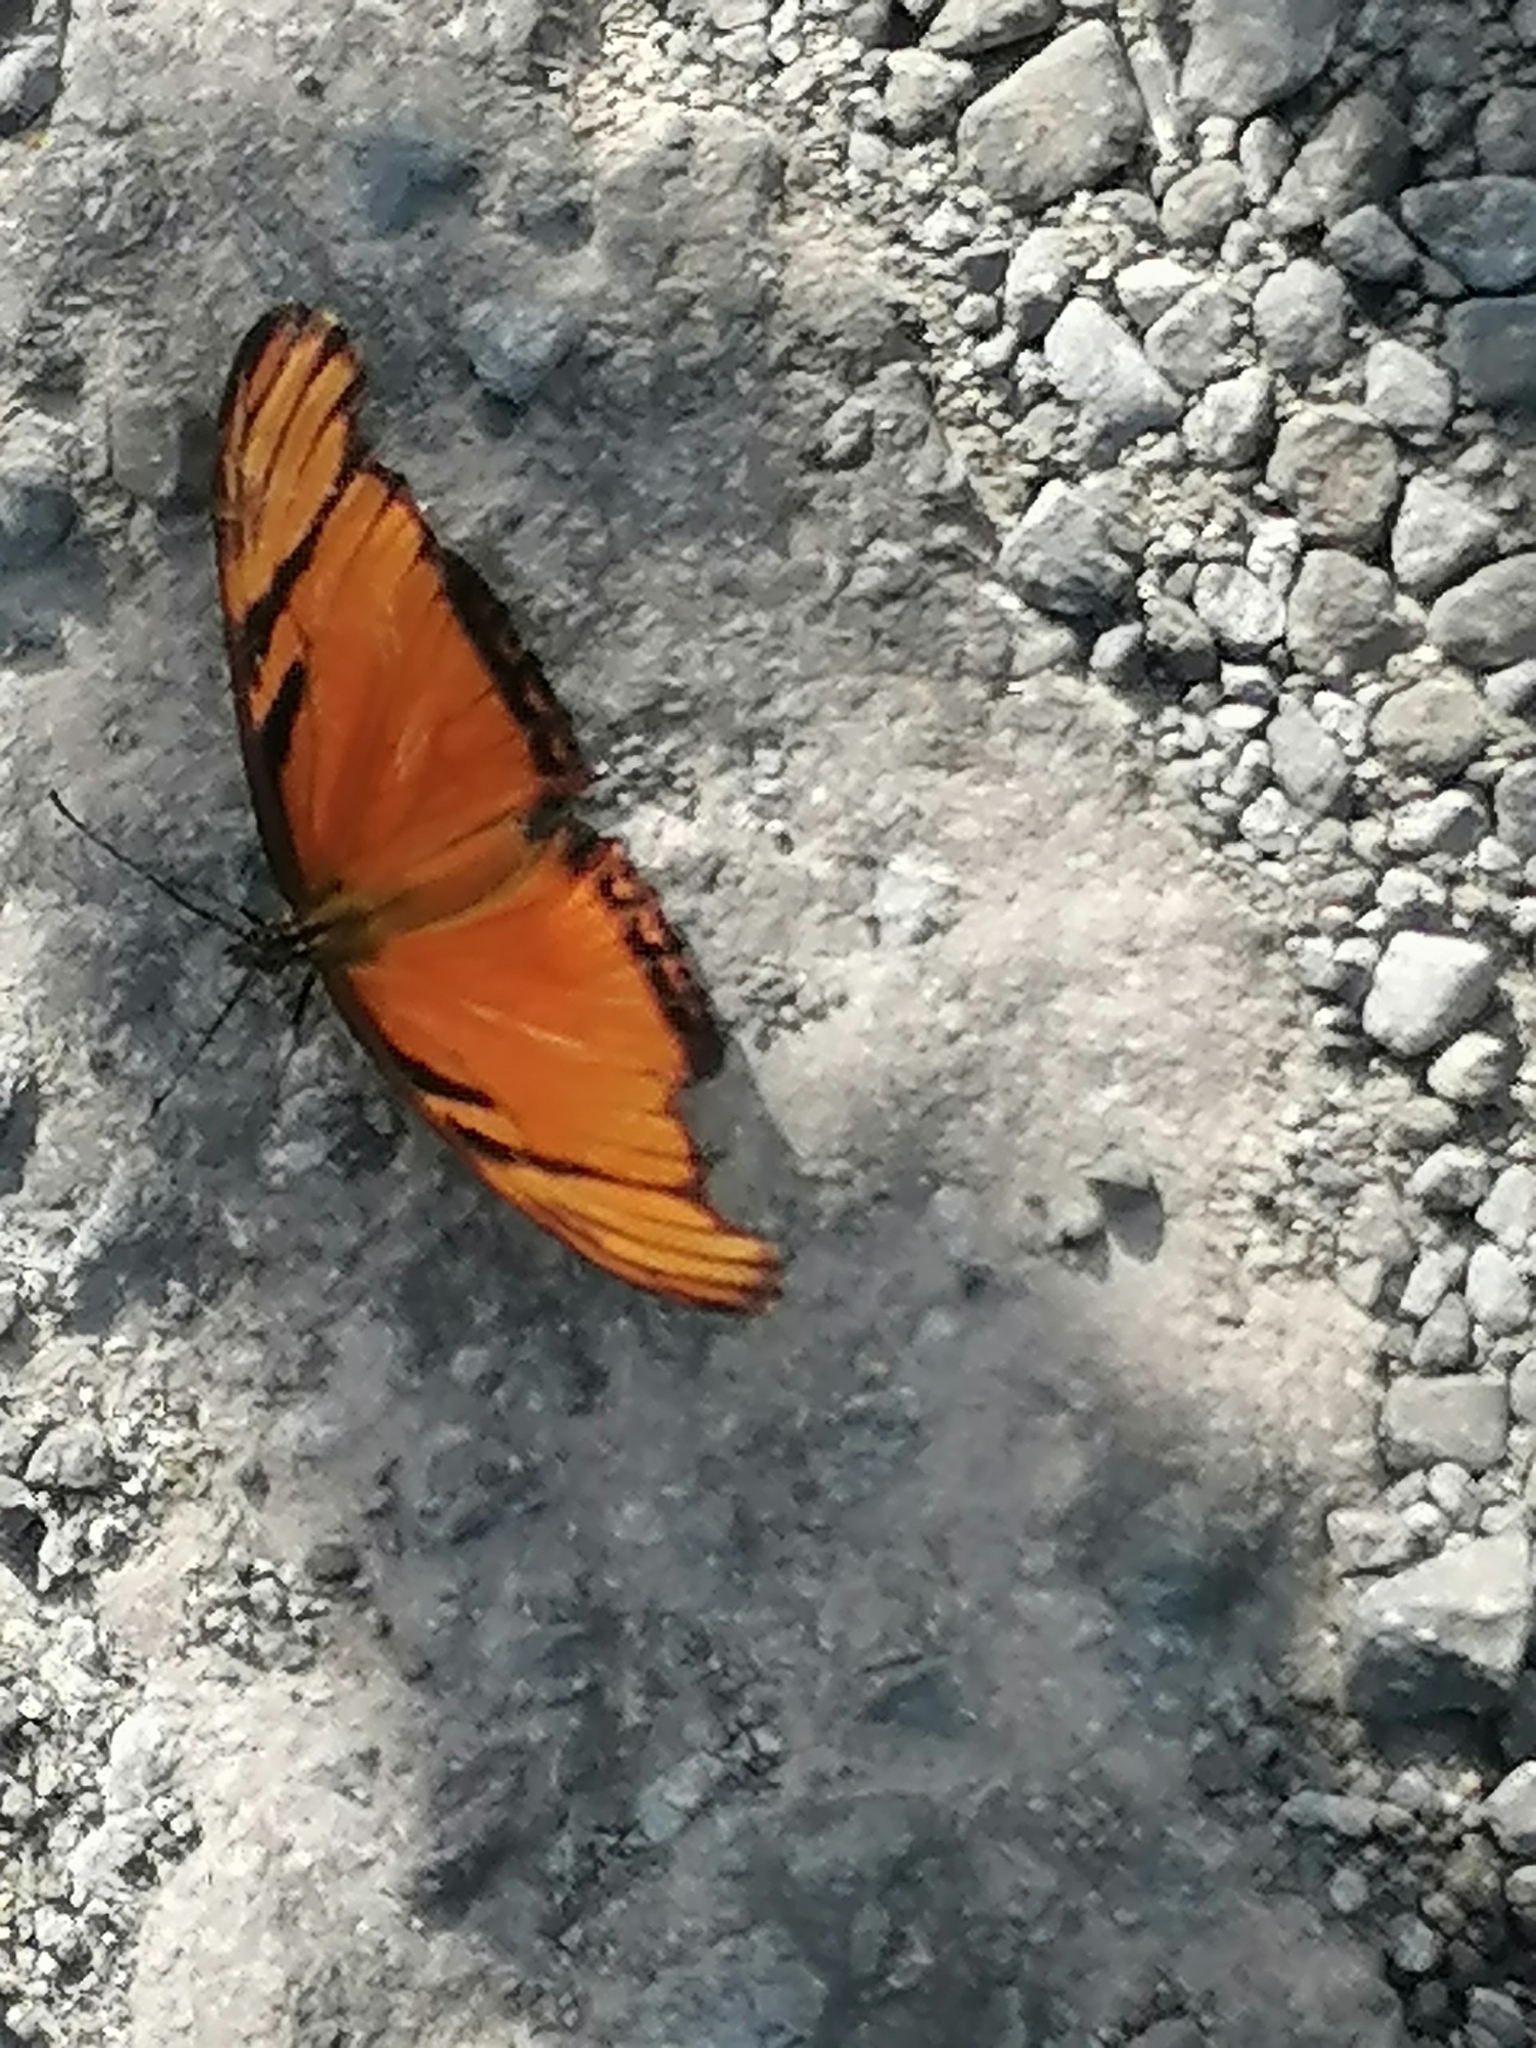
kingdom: Animalia
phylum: Arthropoda
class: Insecta
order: Lepidoptera
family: Nymphalidae
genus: Dione
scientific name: Dione juno
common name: Juno silverspot
